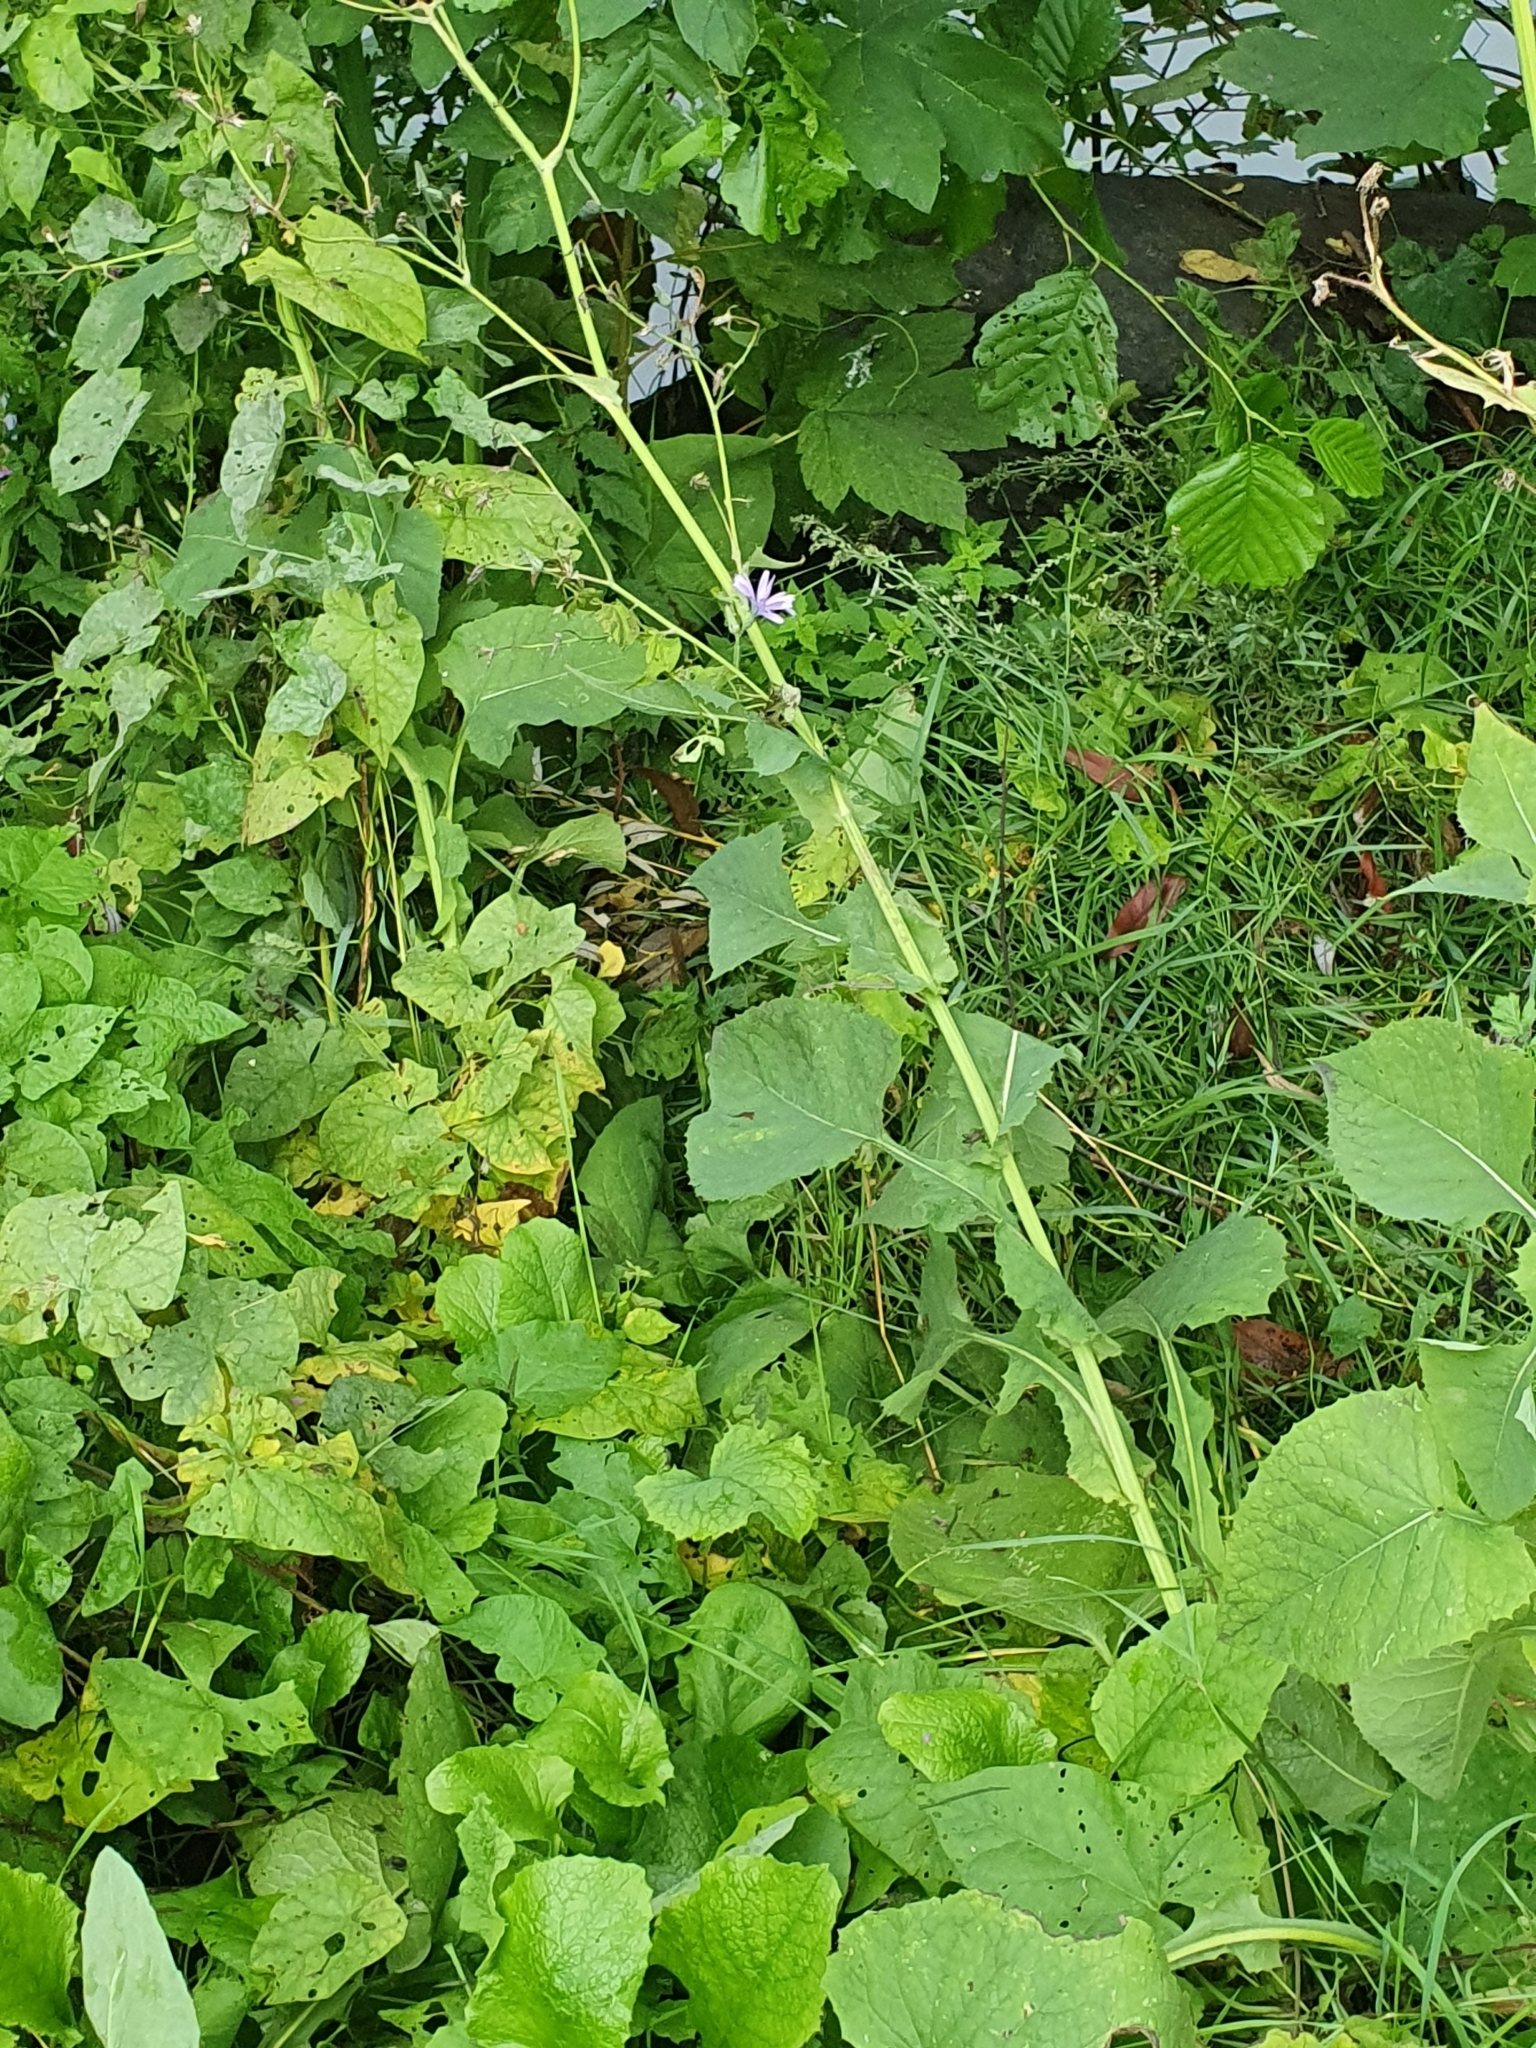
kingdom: Plantae
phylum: Tracheophyta
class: Magnoliopsida
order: Asterales
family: Asteraceae
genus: Lactuca
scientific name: Lactuca macrophylla
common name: Common blue-sow-thistle
